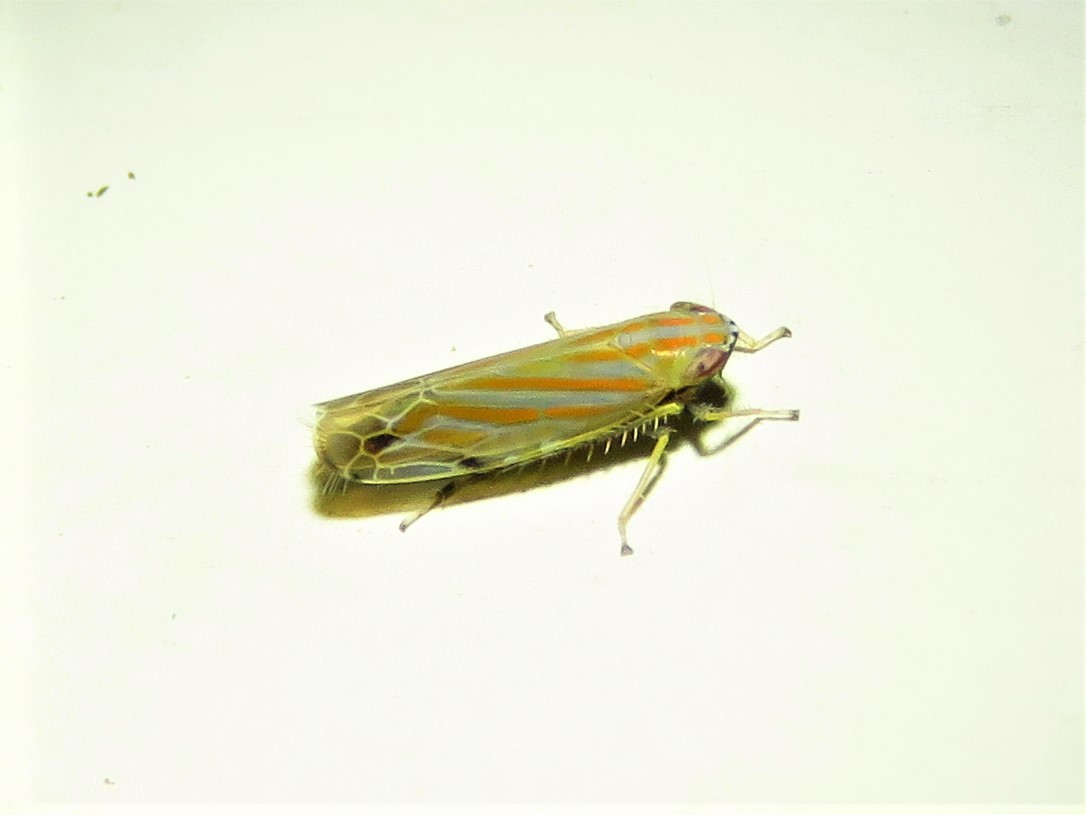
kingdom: Animalia
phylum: Arthropoda
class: Insecta
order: Hemiptera
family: Cicadellidae
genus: Deltanus
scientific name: Deltanus texanus
